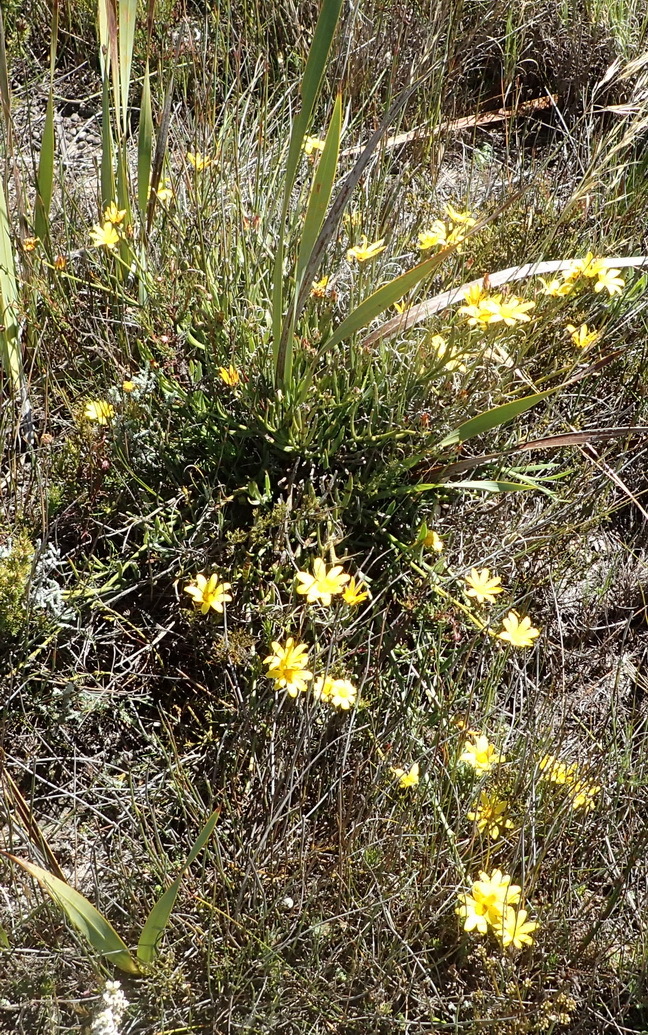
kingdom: Plantae
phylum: Tracheophyta
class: Magnoliopsida
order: Asterales
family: Asteraceae
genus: Osteospermum
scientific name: Osteospermum asperulum
